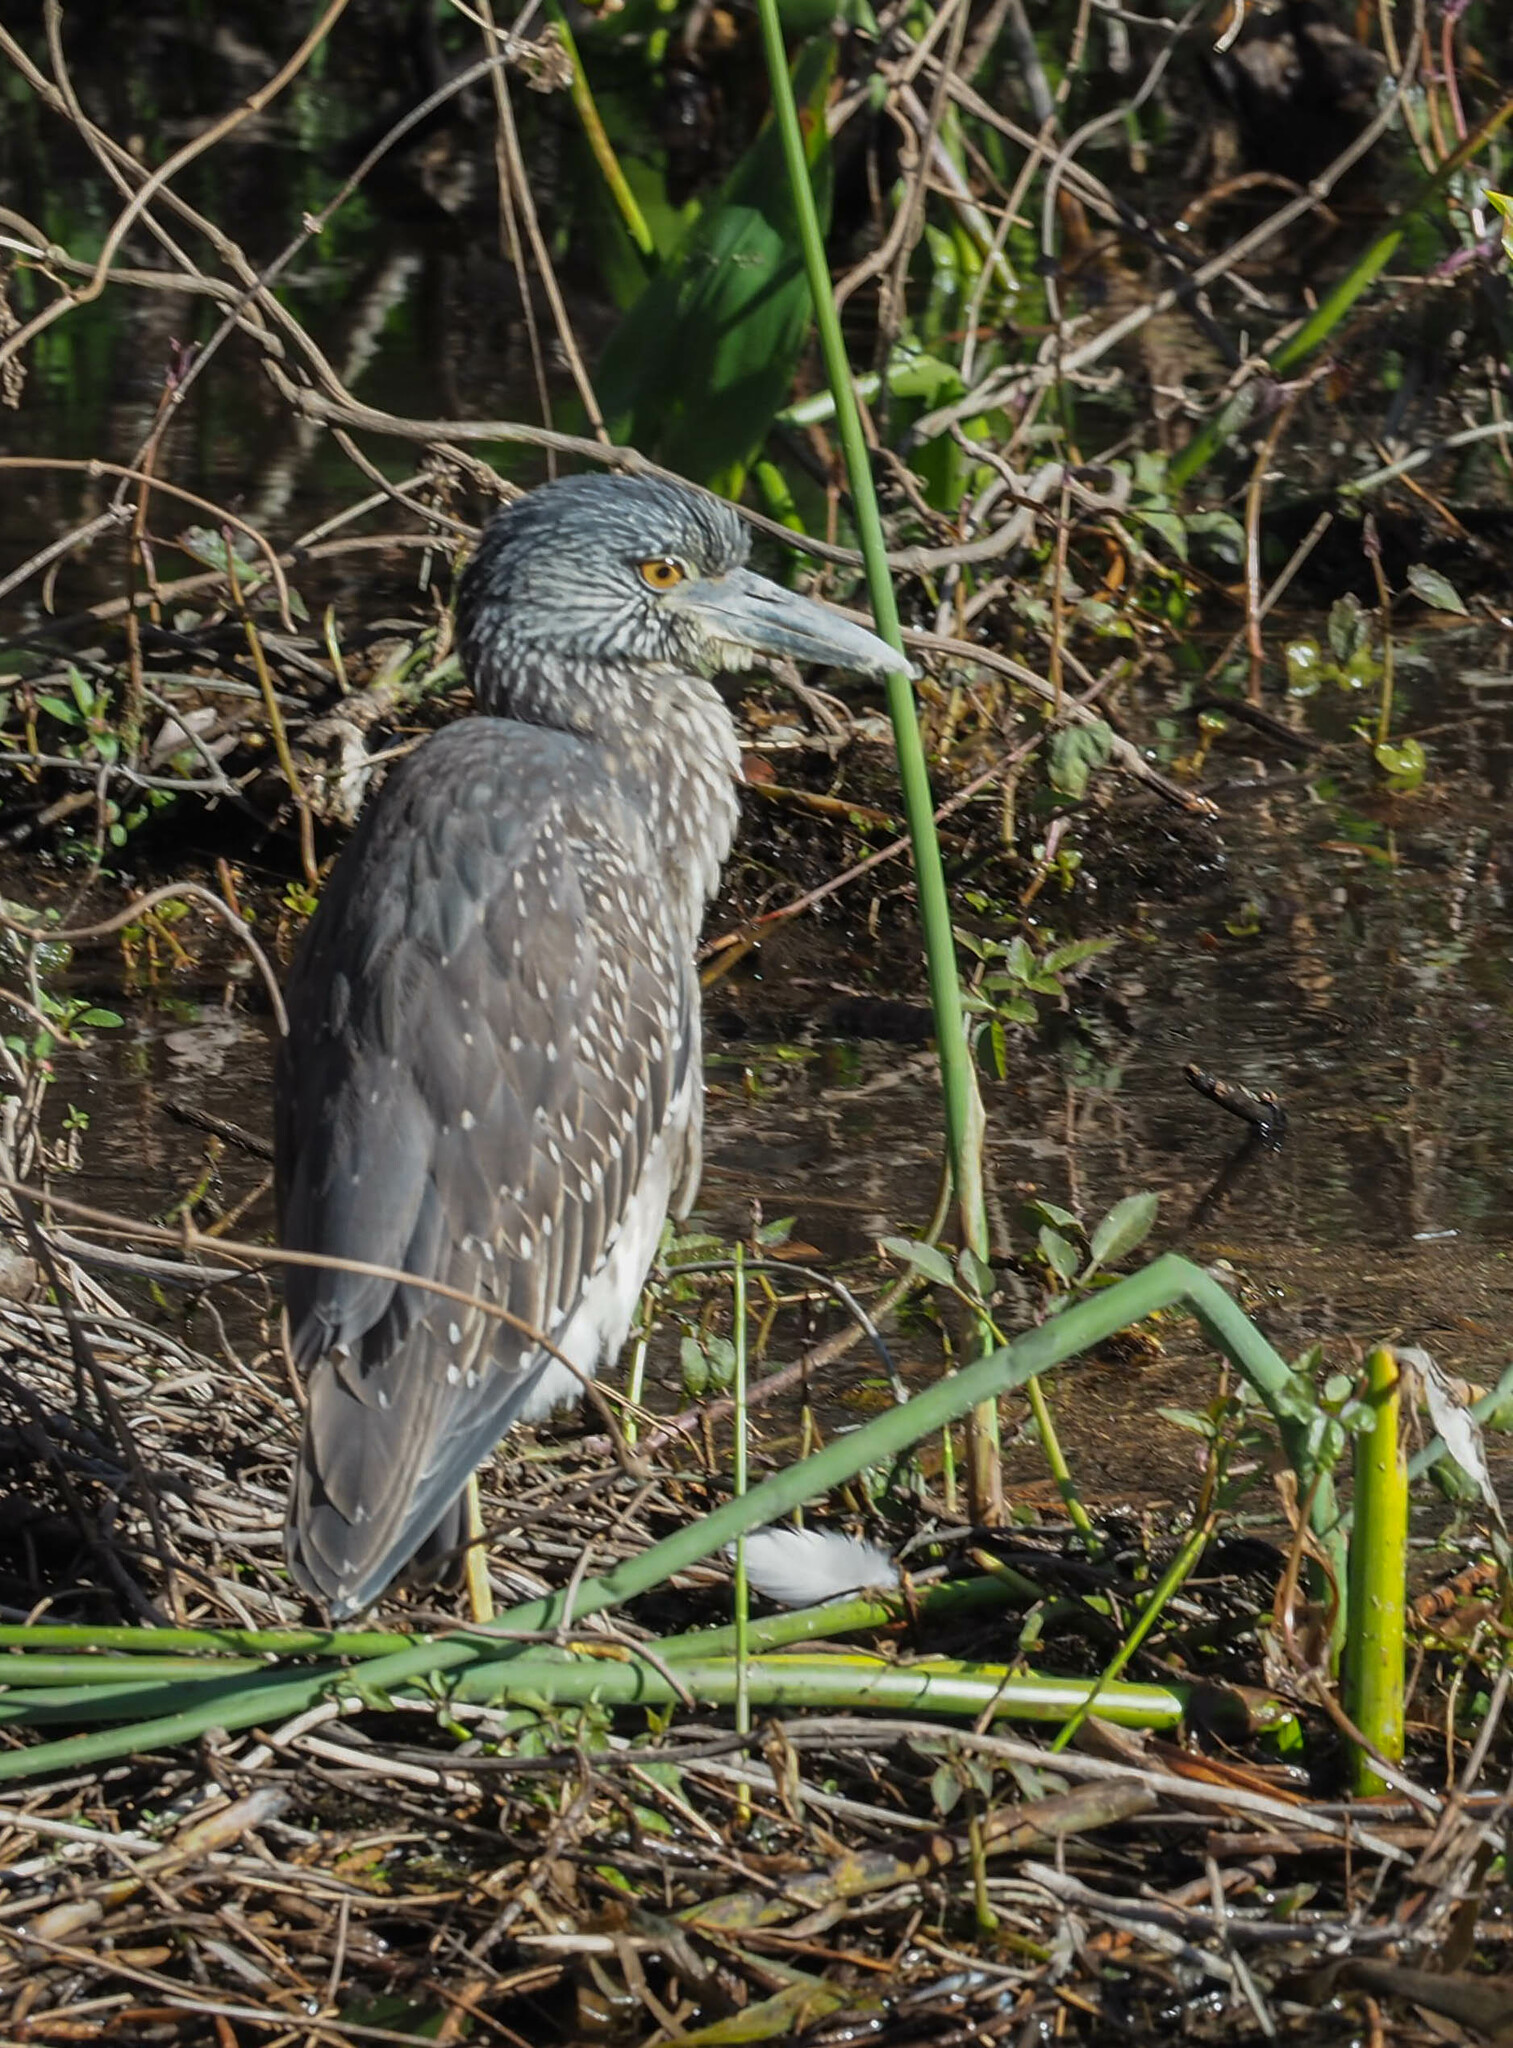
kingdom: Animalia
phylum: Chordata
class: Aves
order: Pelecaniformes
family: Ardeidae
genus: Nyctanassa
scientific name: Nyctanassa violacea
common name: Yellow-crowned night heron
